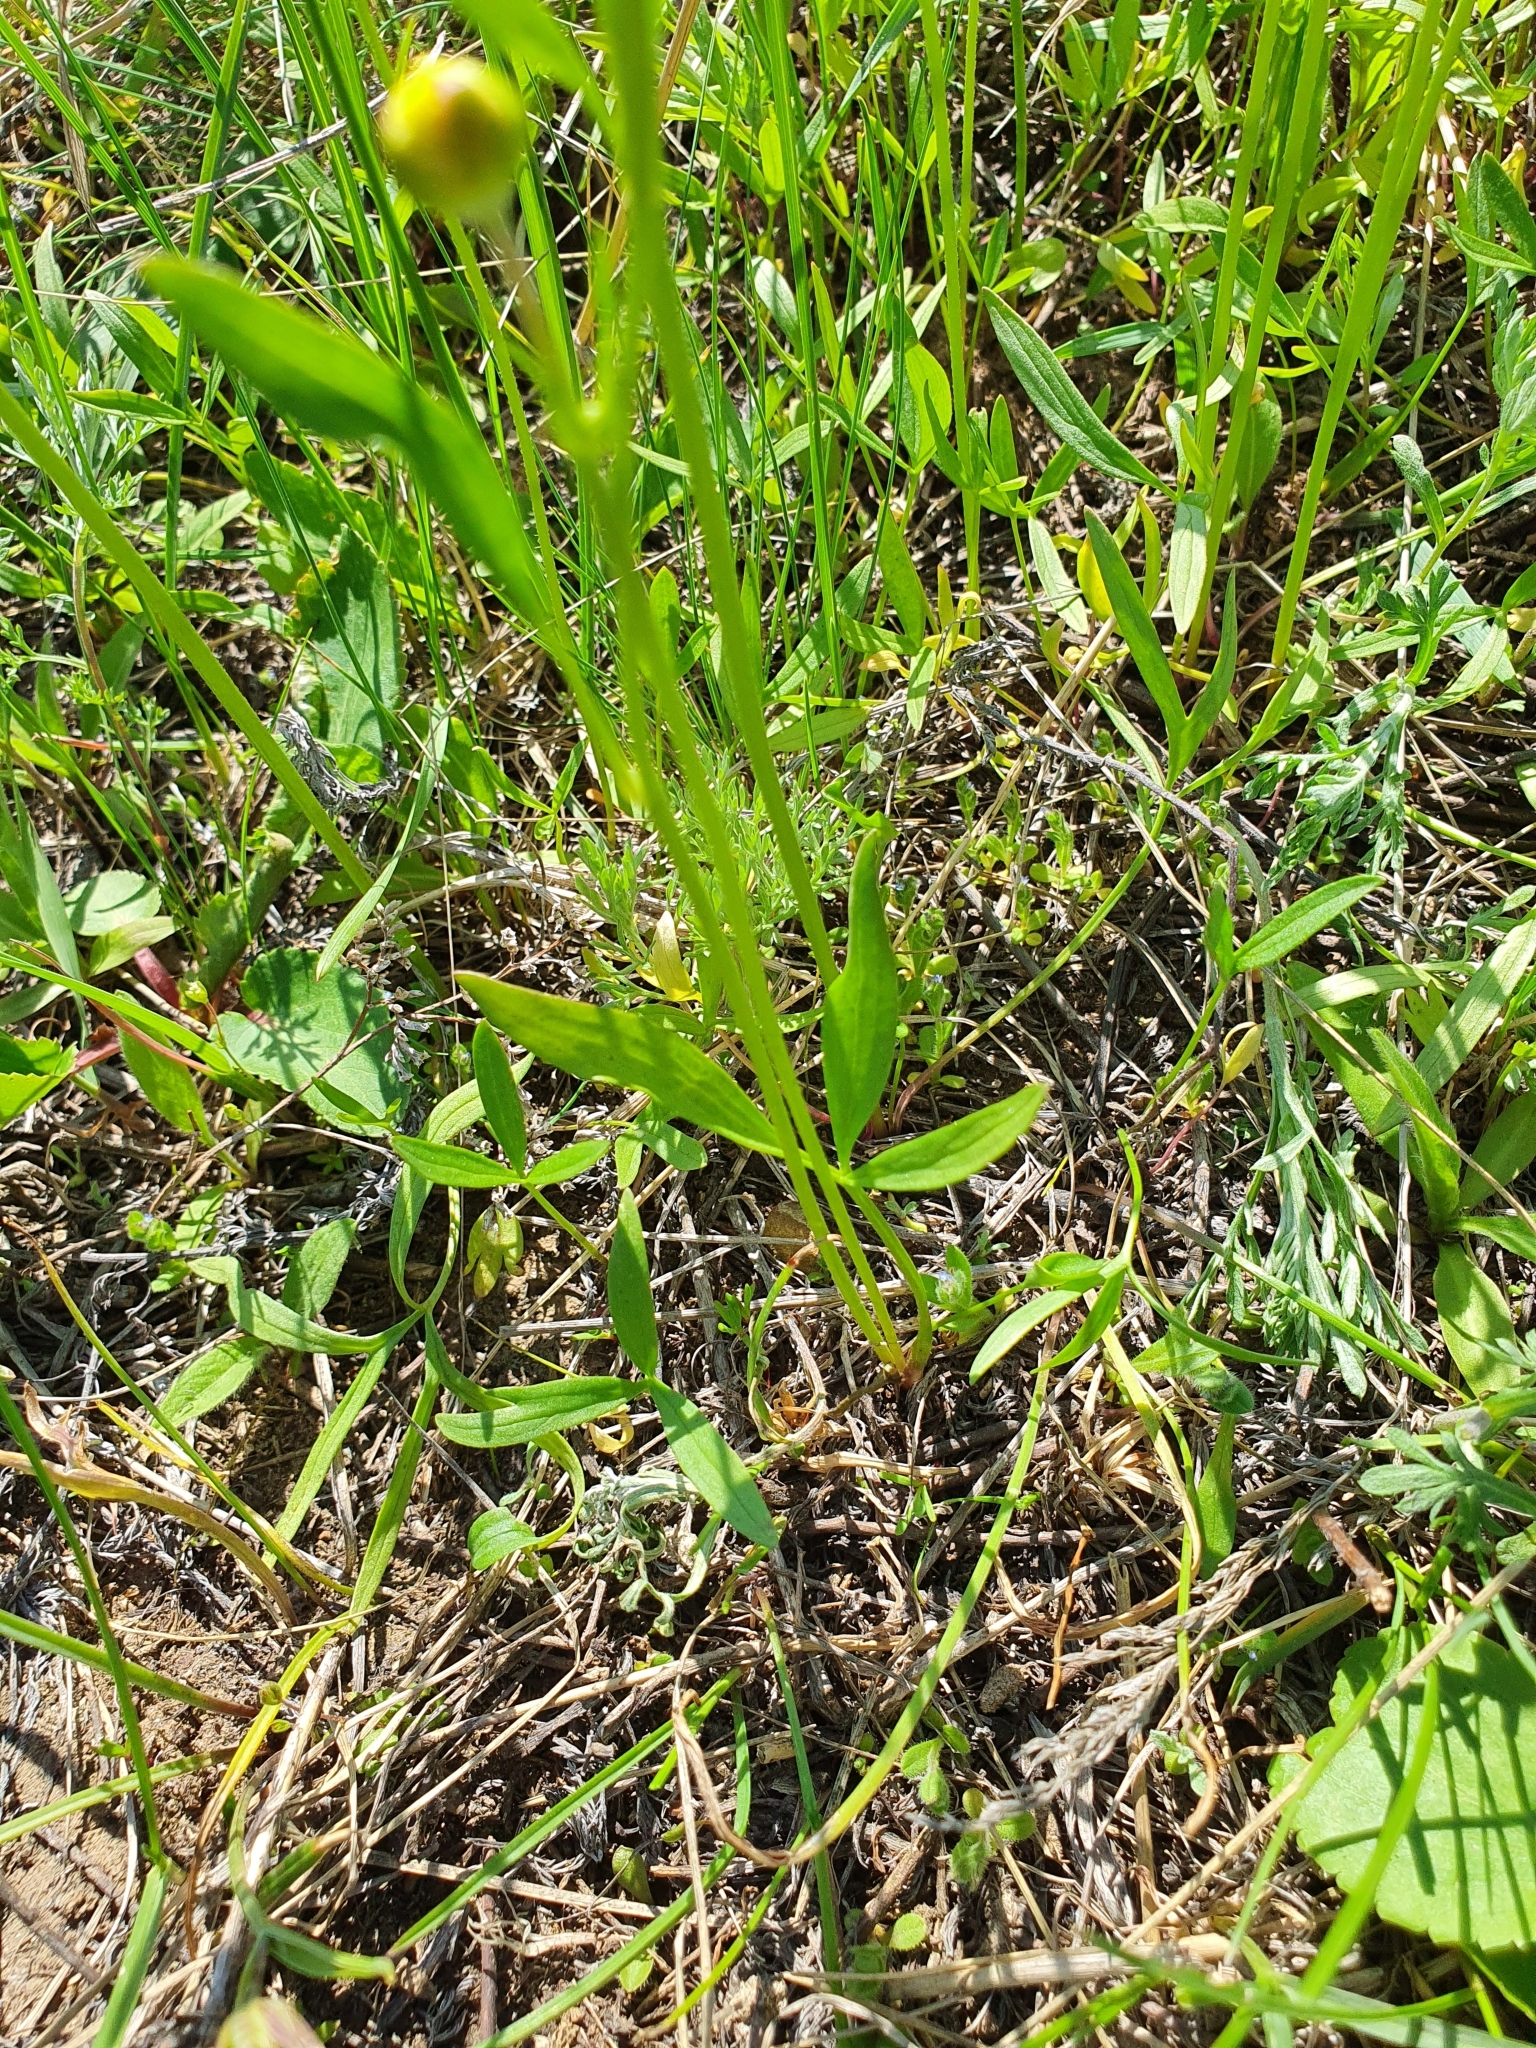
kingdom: Plantae
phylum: Tracheophyta
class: Magnoliopsida
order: Ranunculales
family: Ranunculaceae
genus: Ranunculus
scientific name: Ranunculus pedatus
